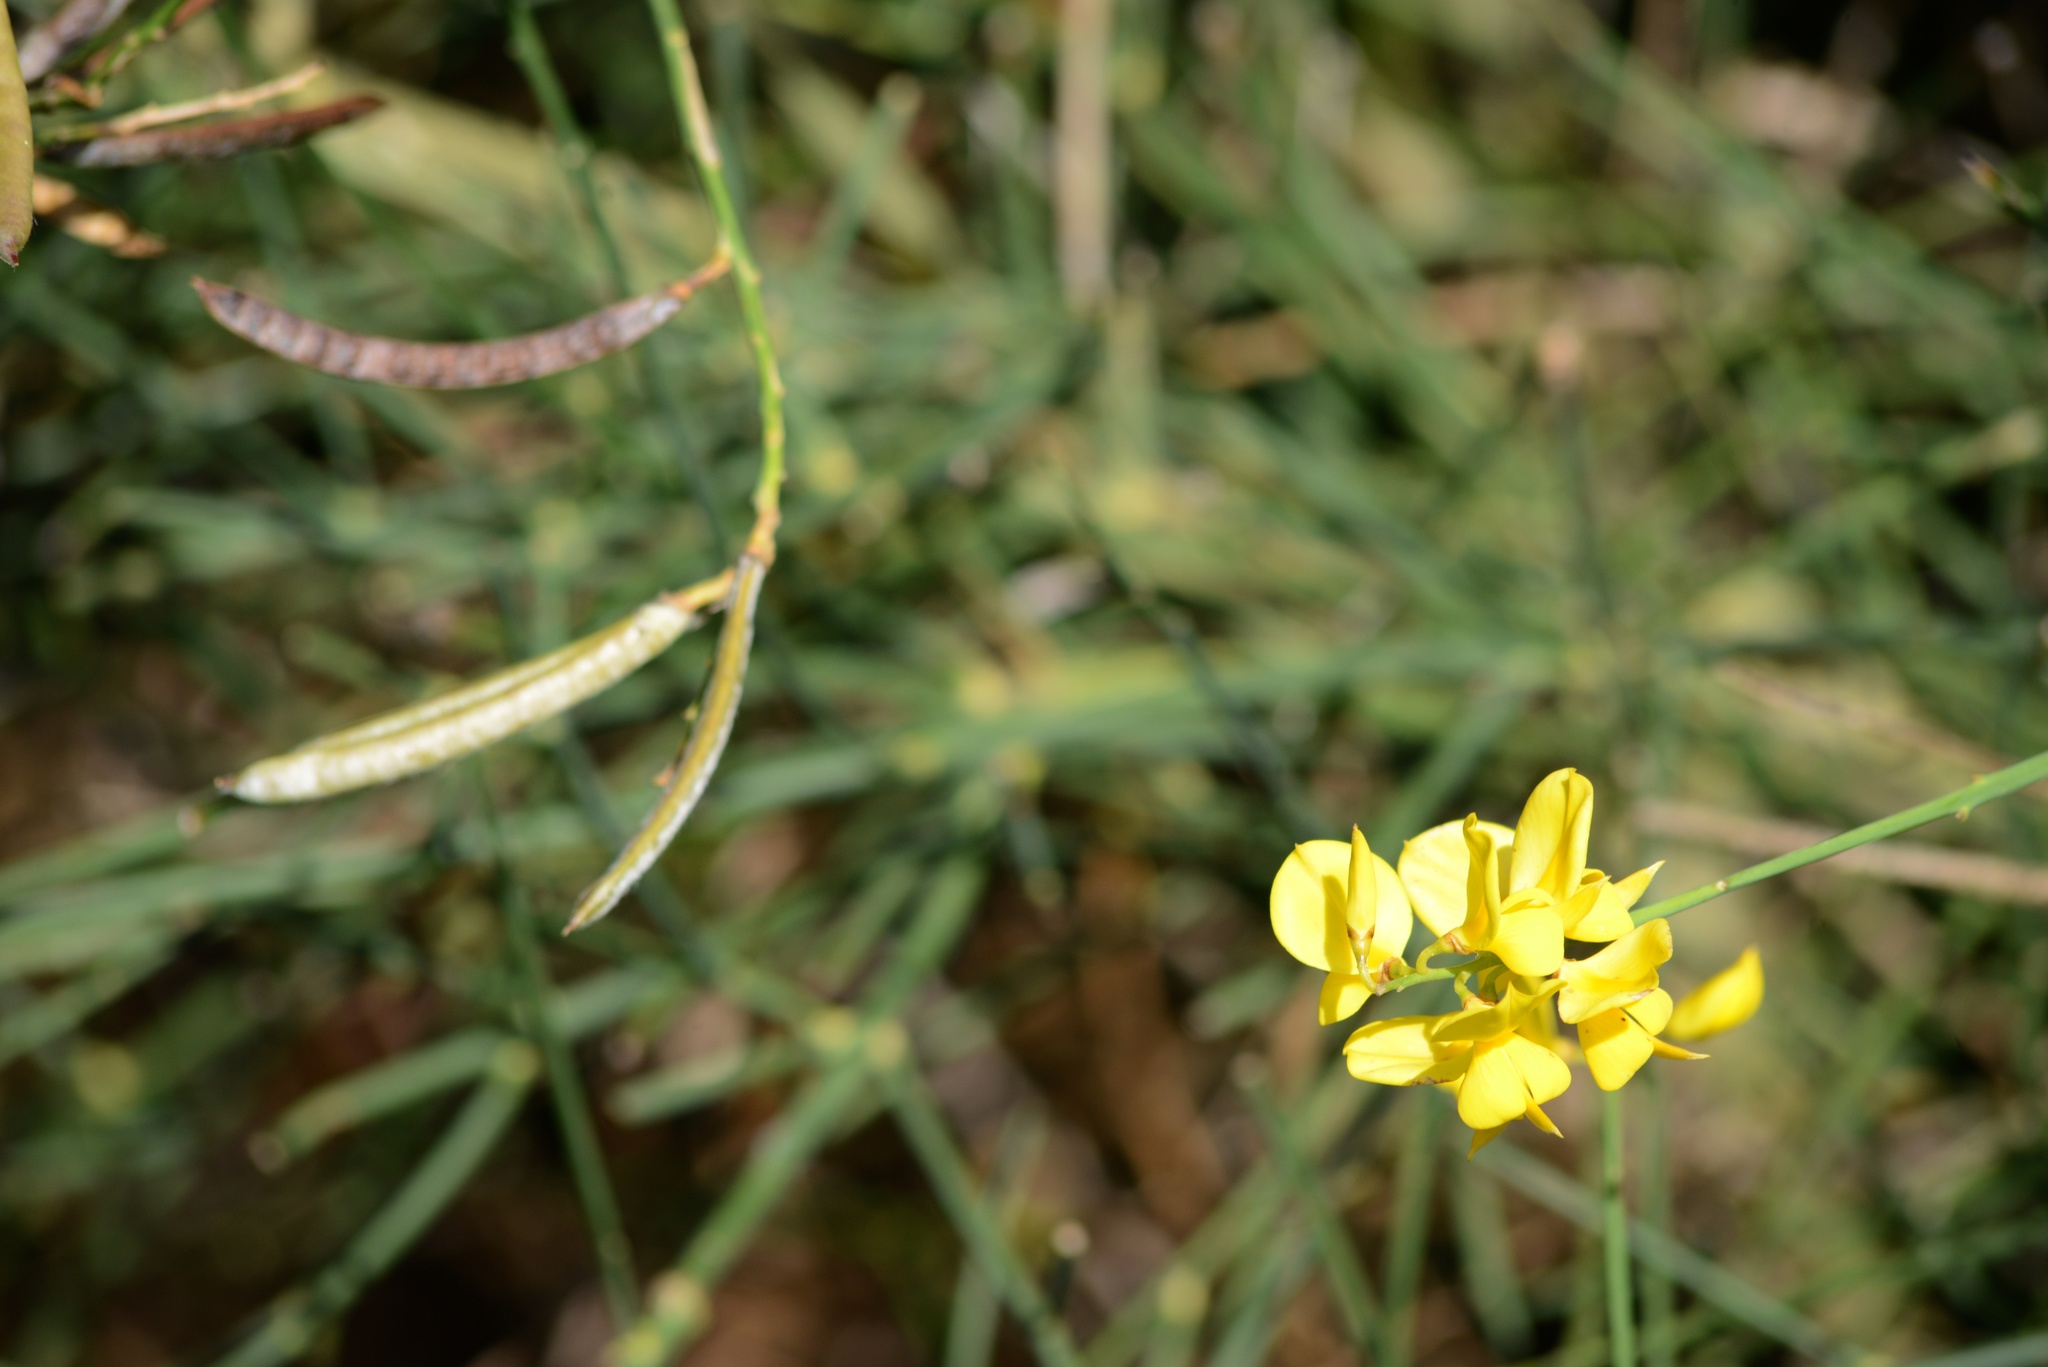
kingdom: Plantae
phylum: Tracheophyta
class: Magnoliopsida
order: Fabales
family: Fabaceae
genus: Spartium
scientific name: Spartium junceum
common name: Spanish broom
